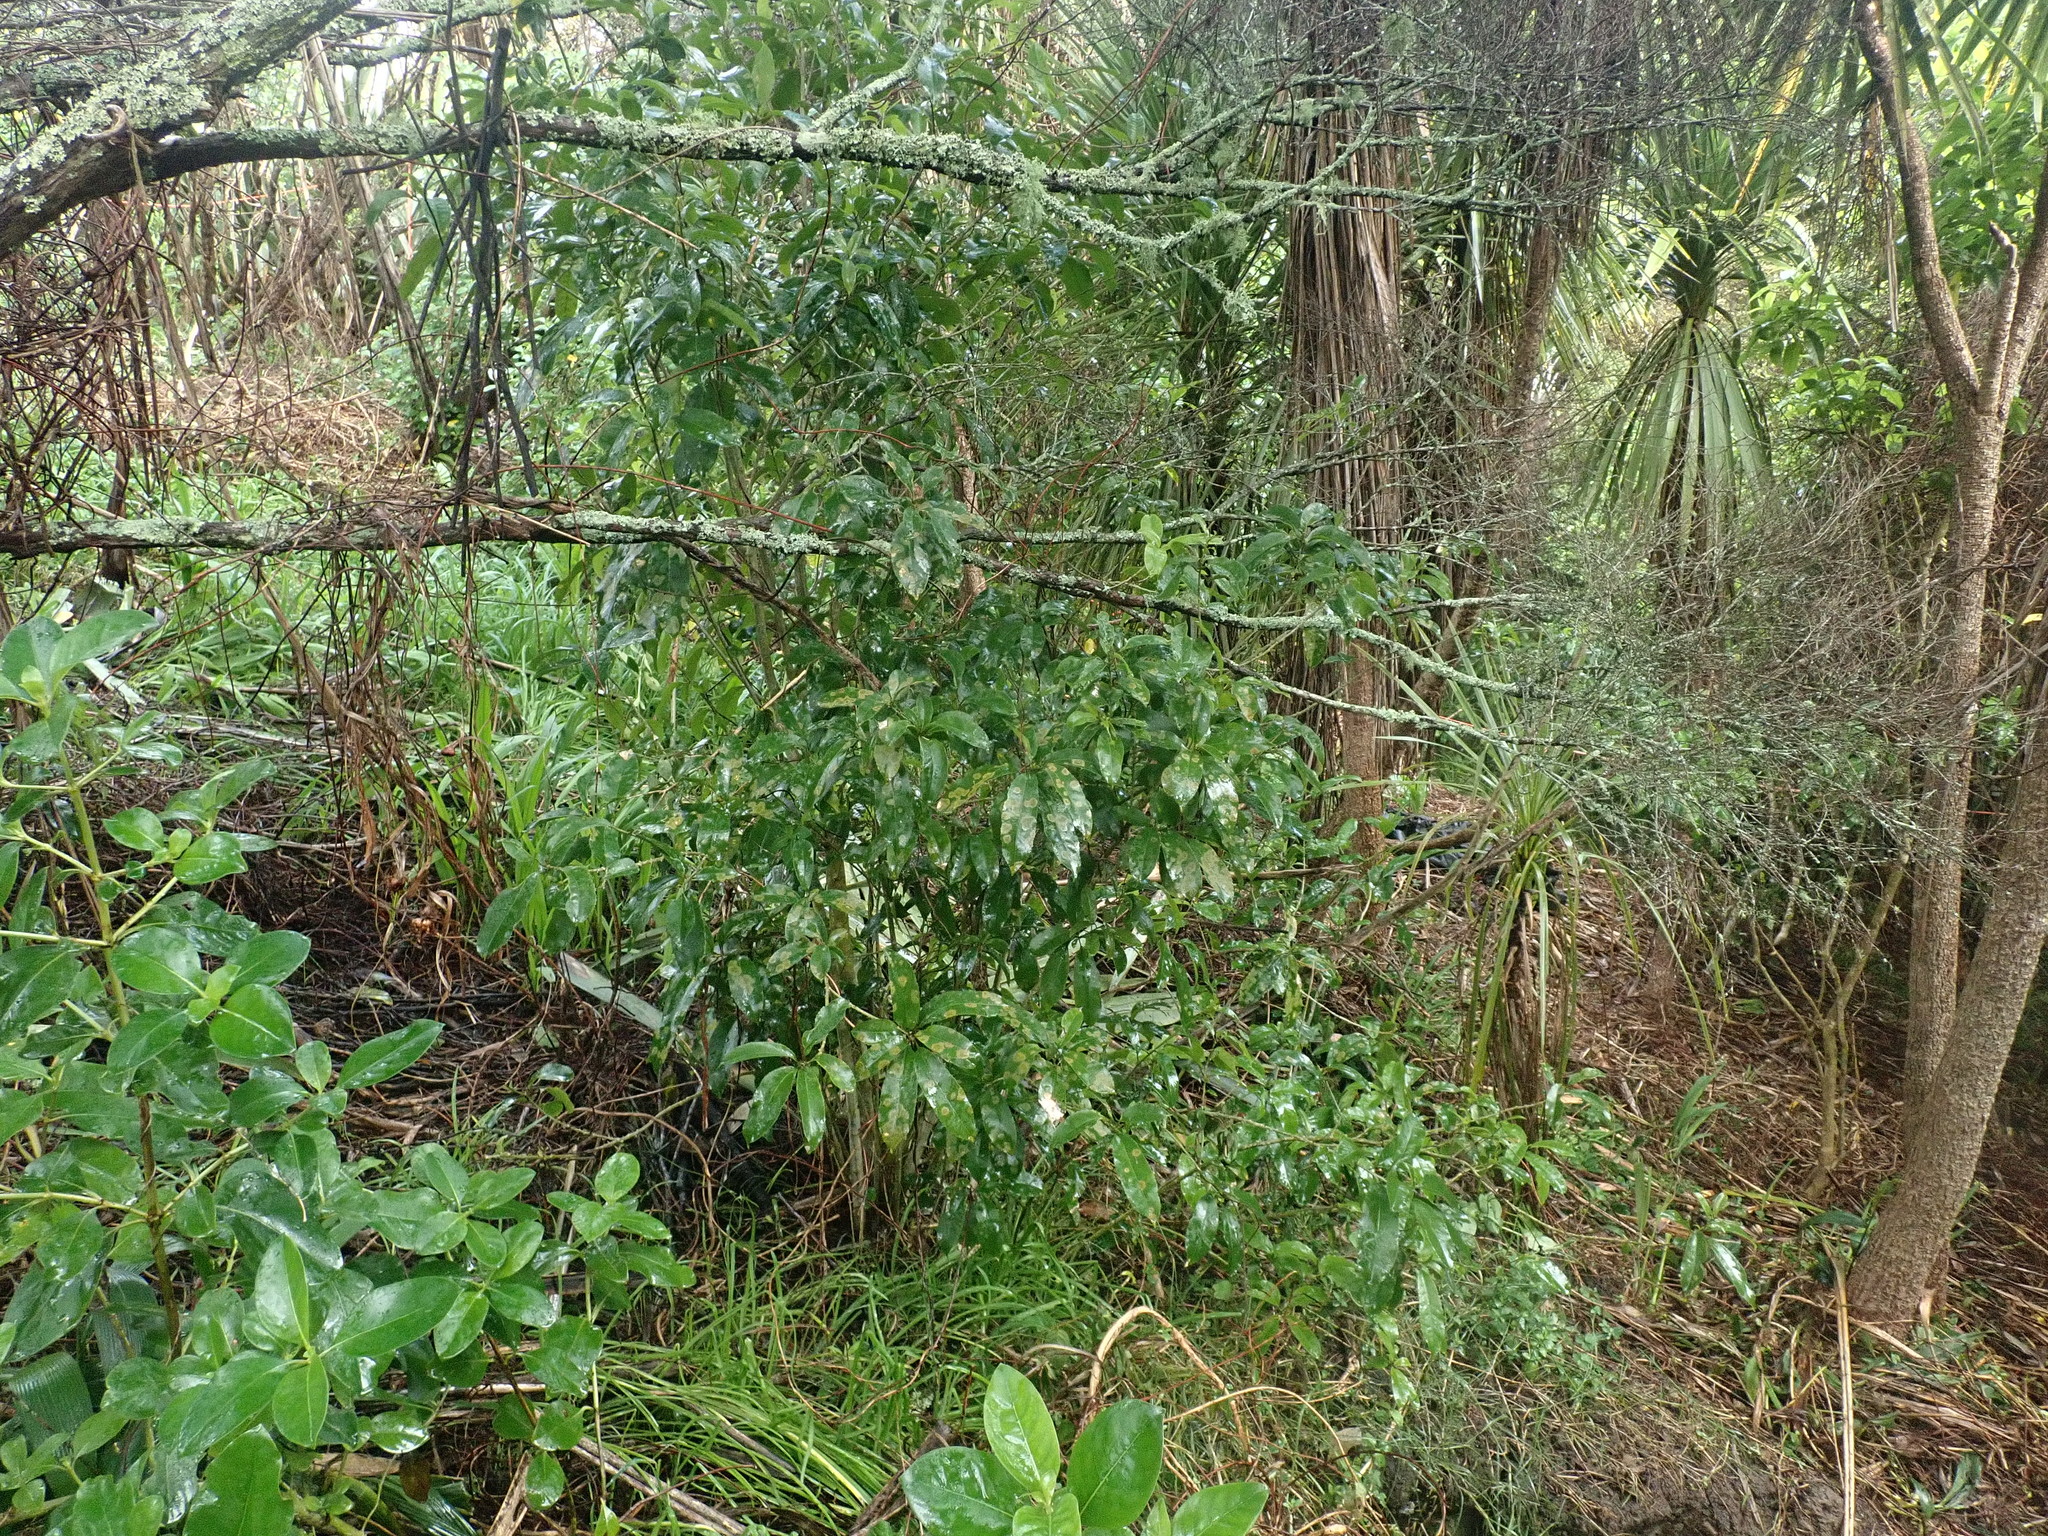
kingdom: Plantae
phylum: Tracheophyta
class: Magnoliopsida
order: Malpighiales
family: Violaceae
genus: Melicytus
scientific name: Melicytus ramiflorus
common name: Mahoe
